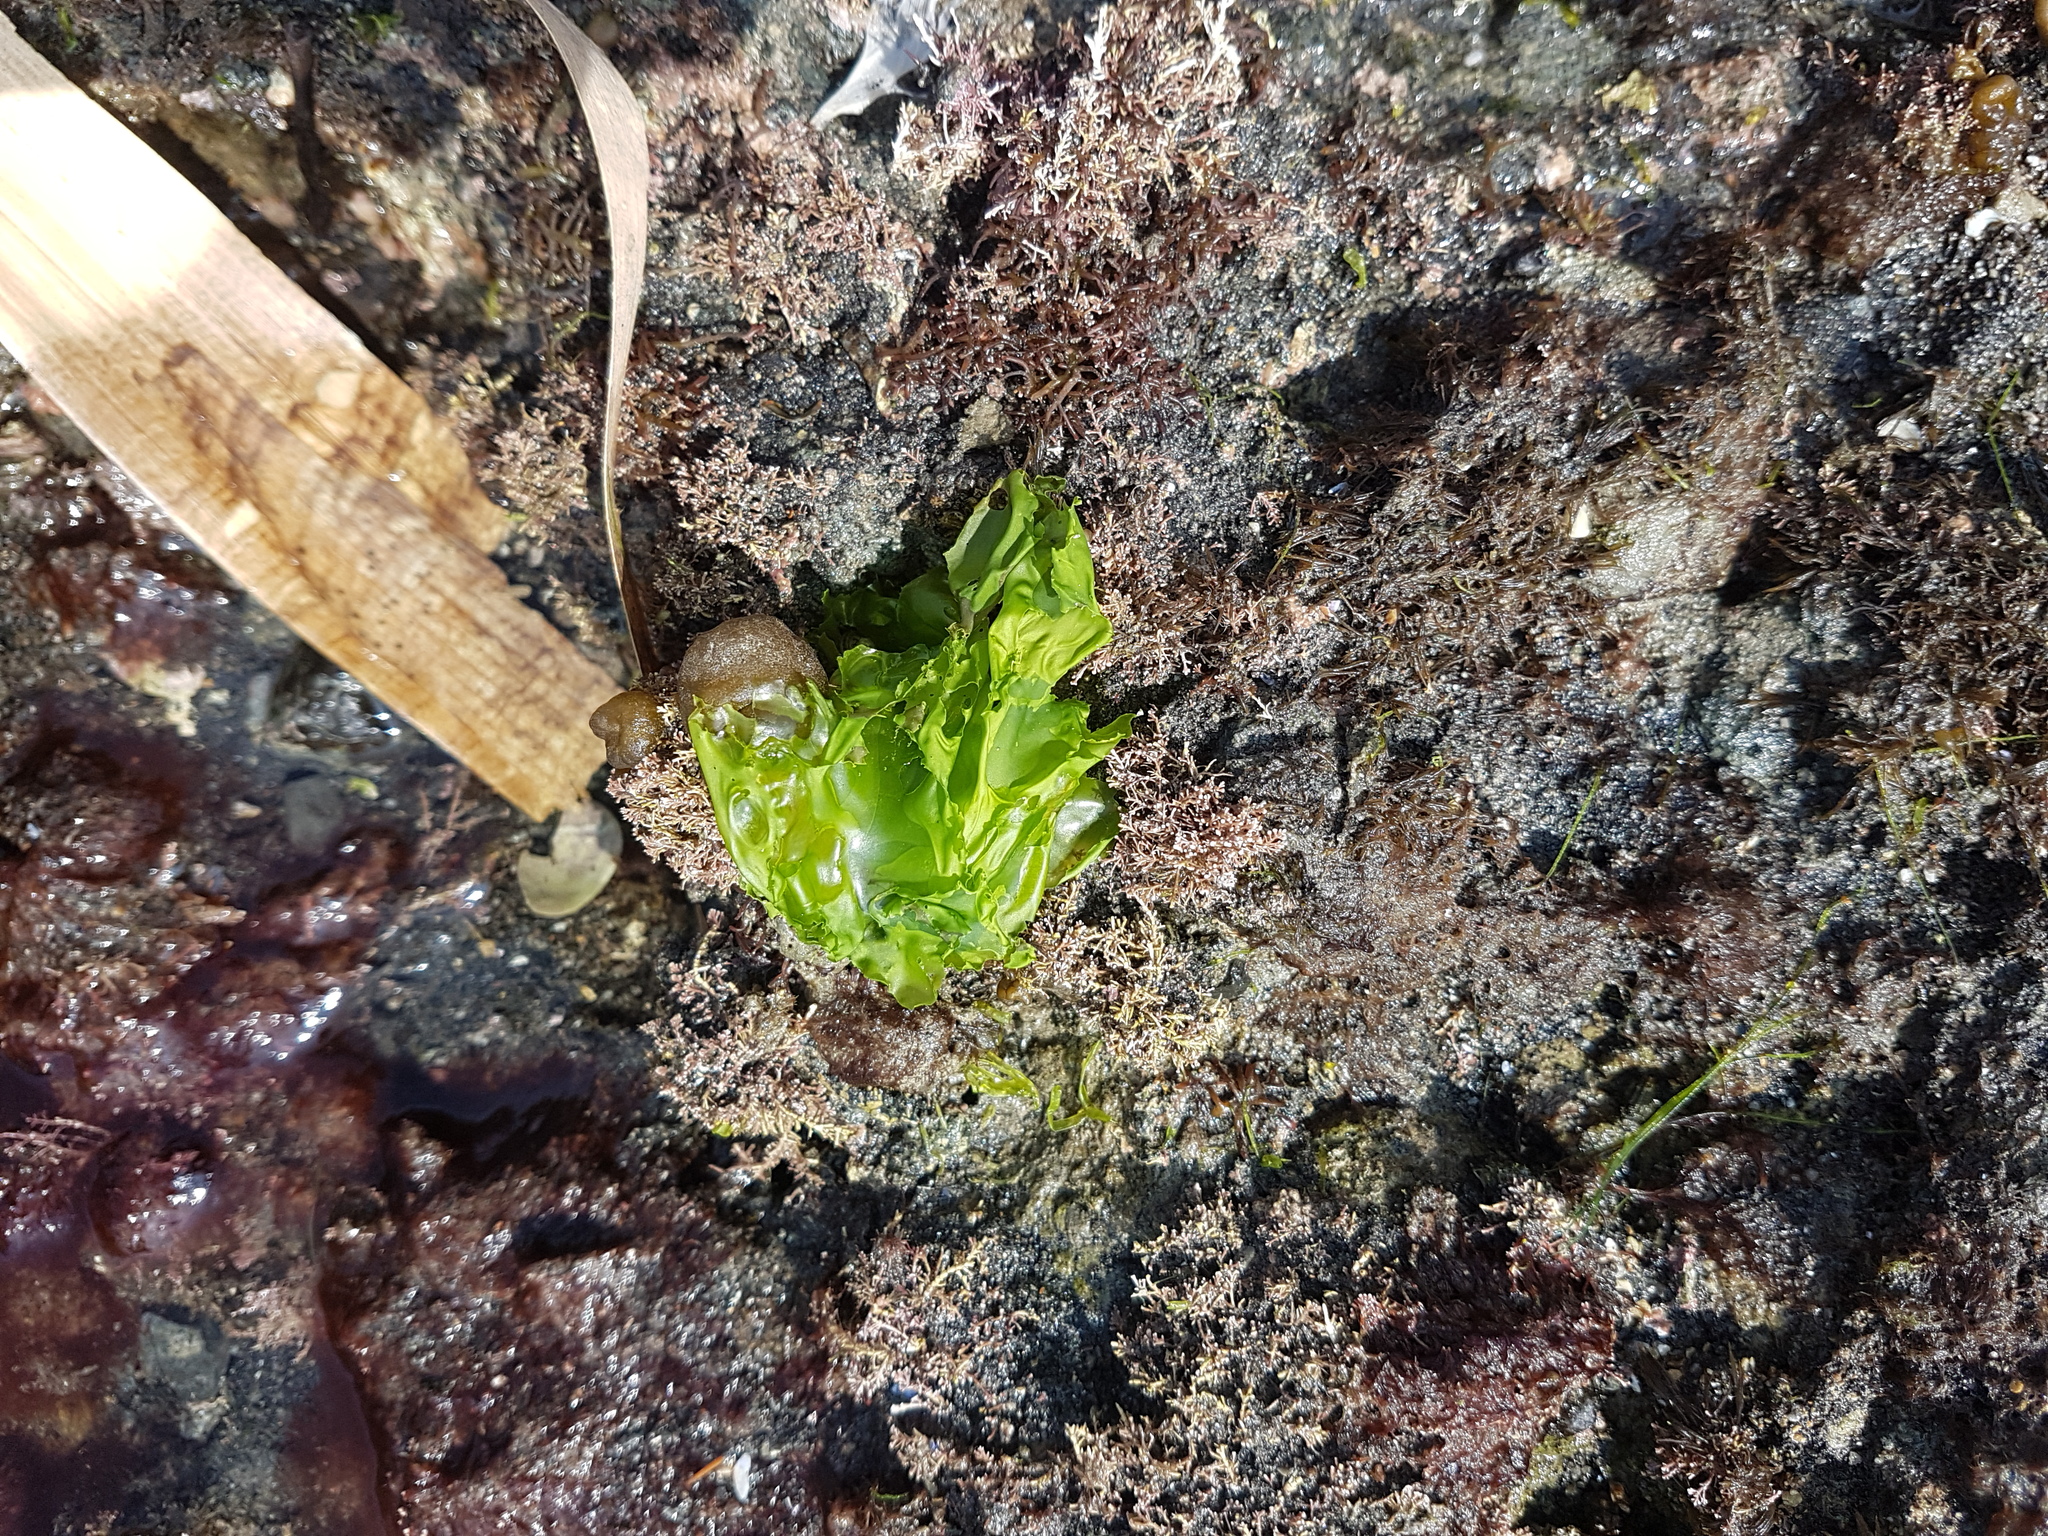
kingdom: Plantae
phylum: Chlorophyta
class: Ulvophyceae
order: Ulvales
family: Ulvaceae
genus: Ulva
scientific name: Ulva
